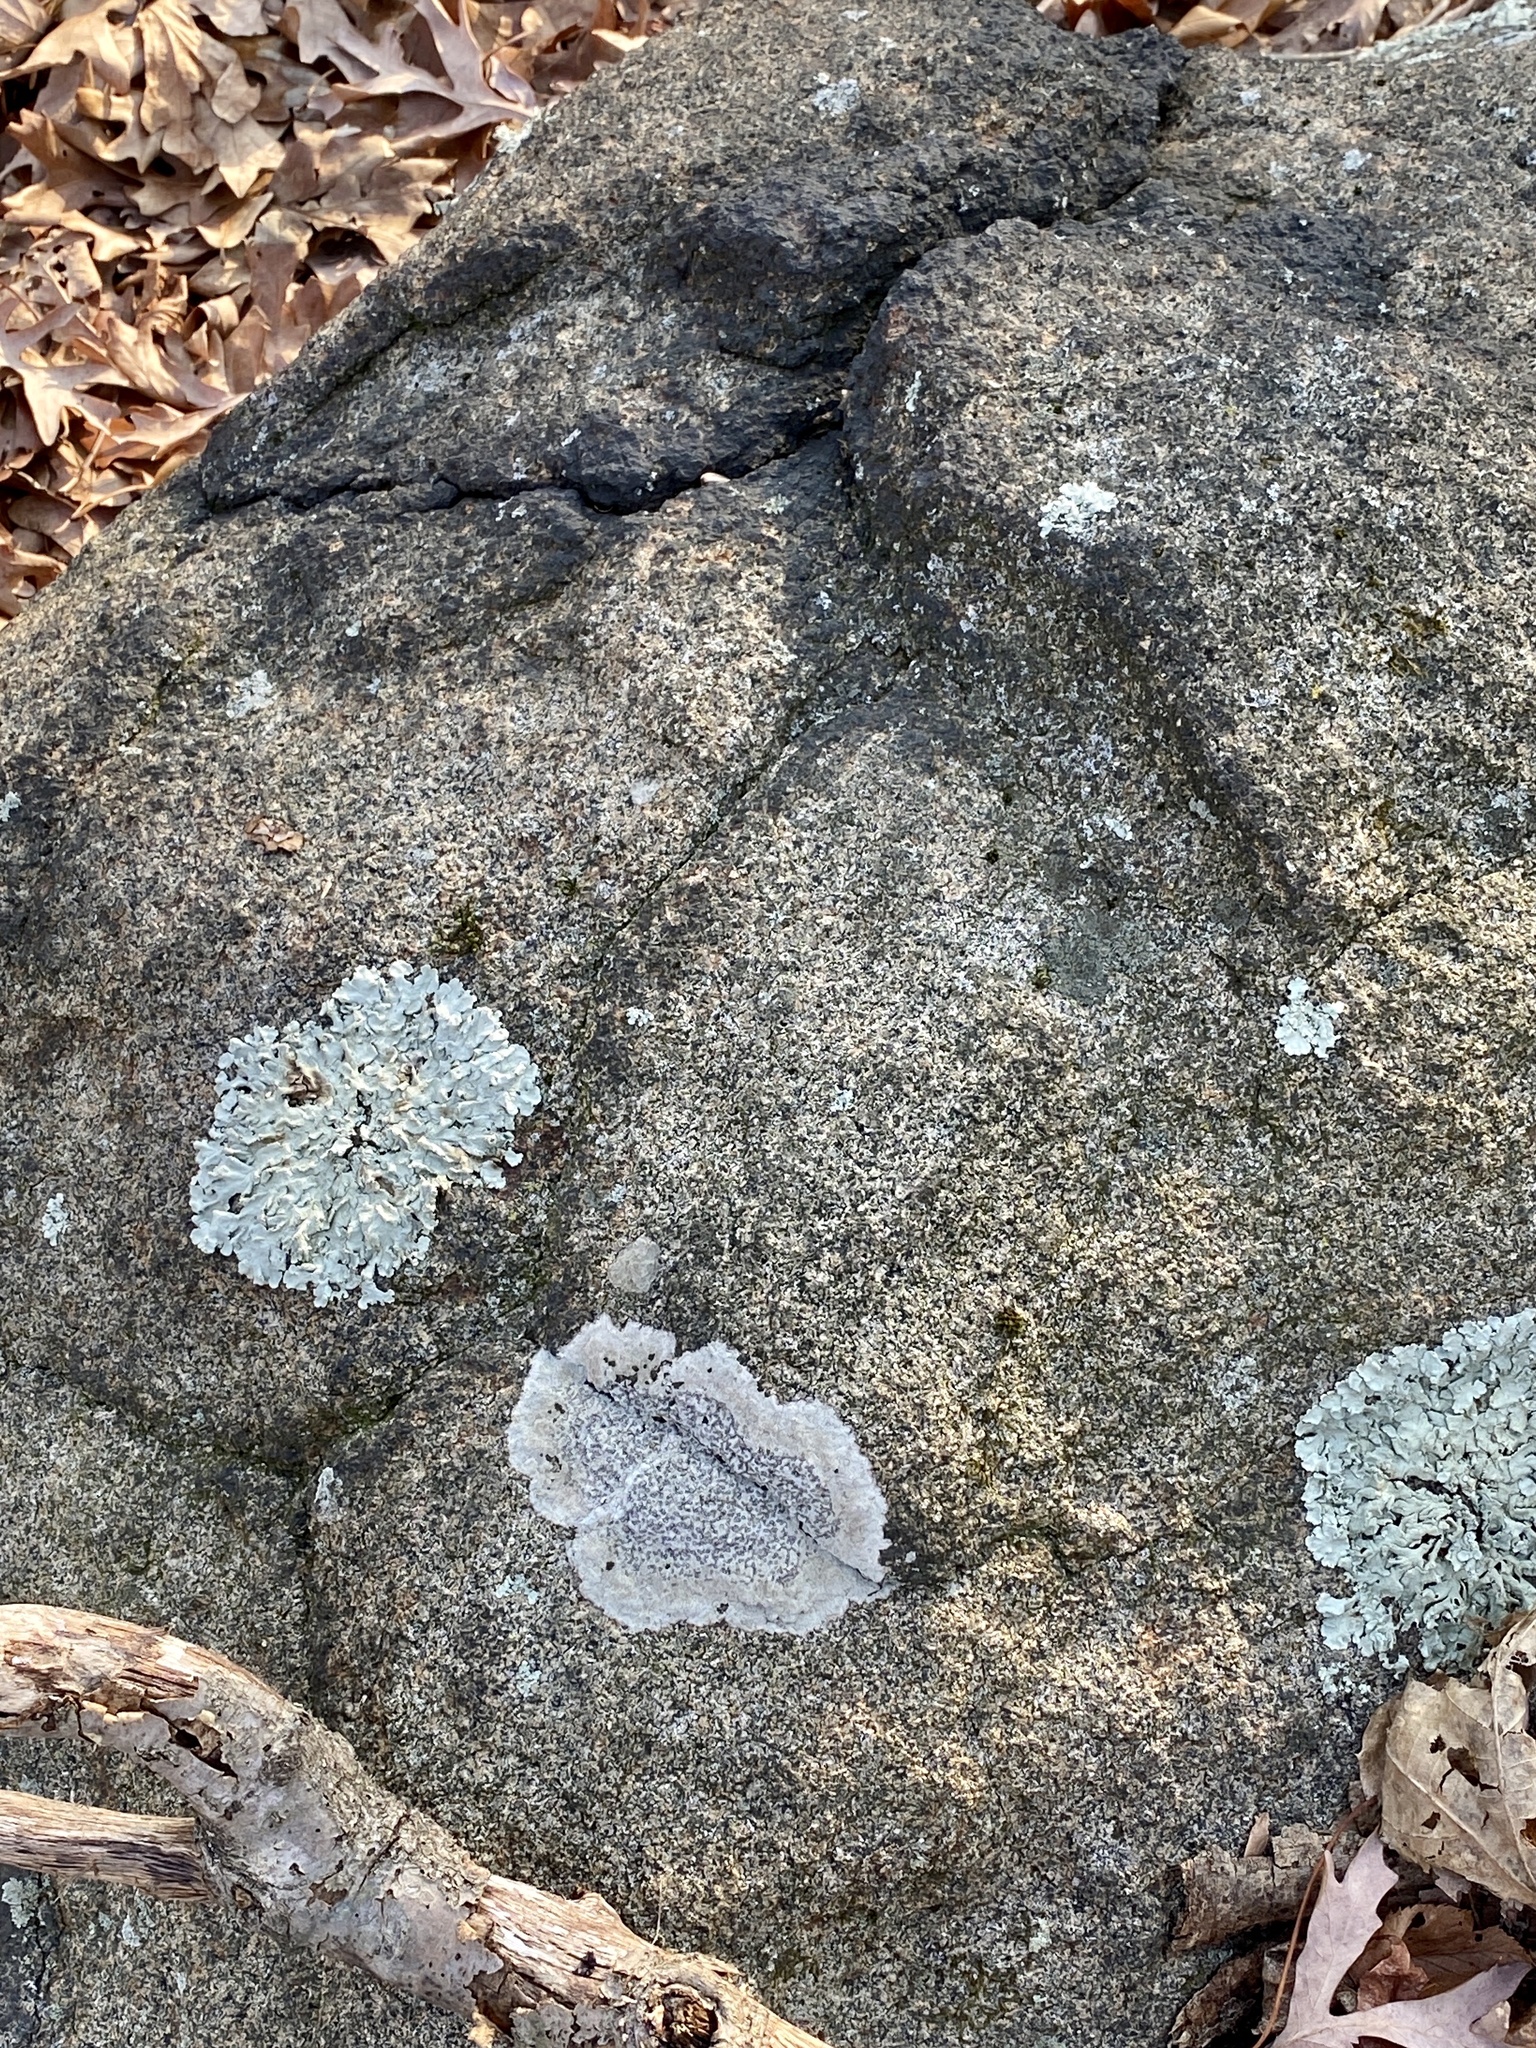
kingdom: Fungi
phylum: Ascomycota
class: Lecanoromycetes
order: Lecideales
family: Lecideaceae
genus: Porpidia
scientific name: Porpidia albocaerulescens
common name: Smokey-eyed boulder lichen
